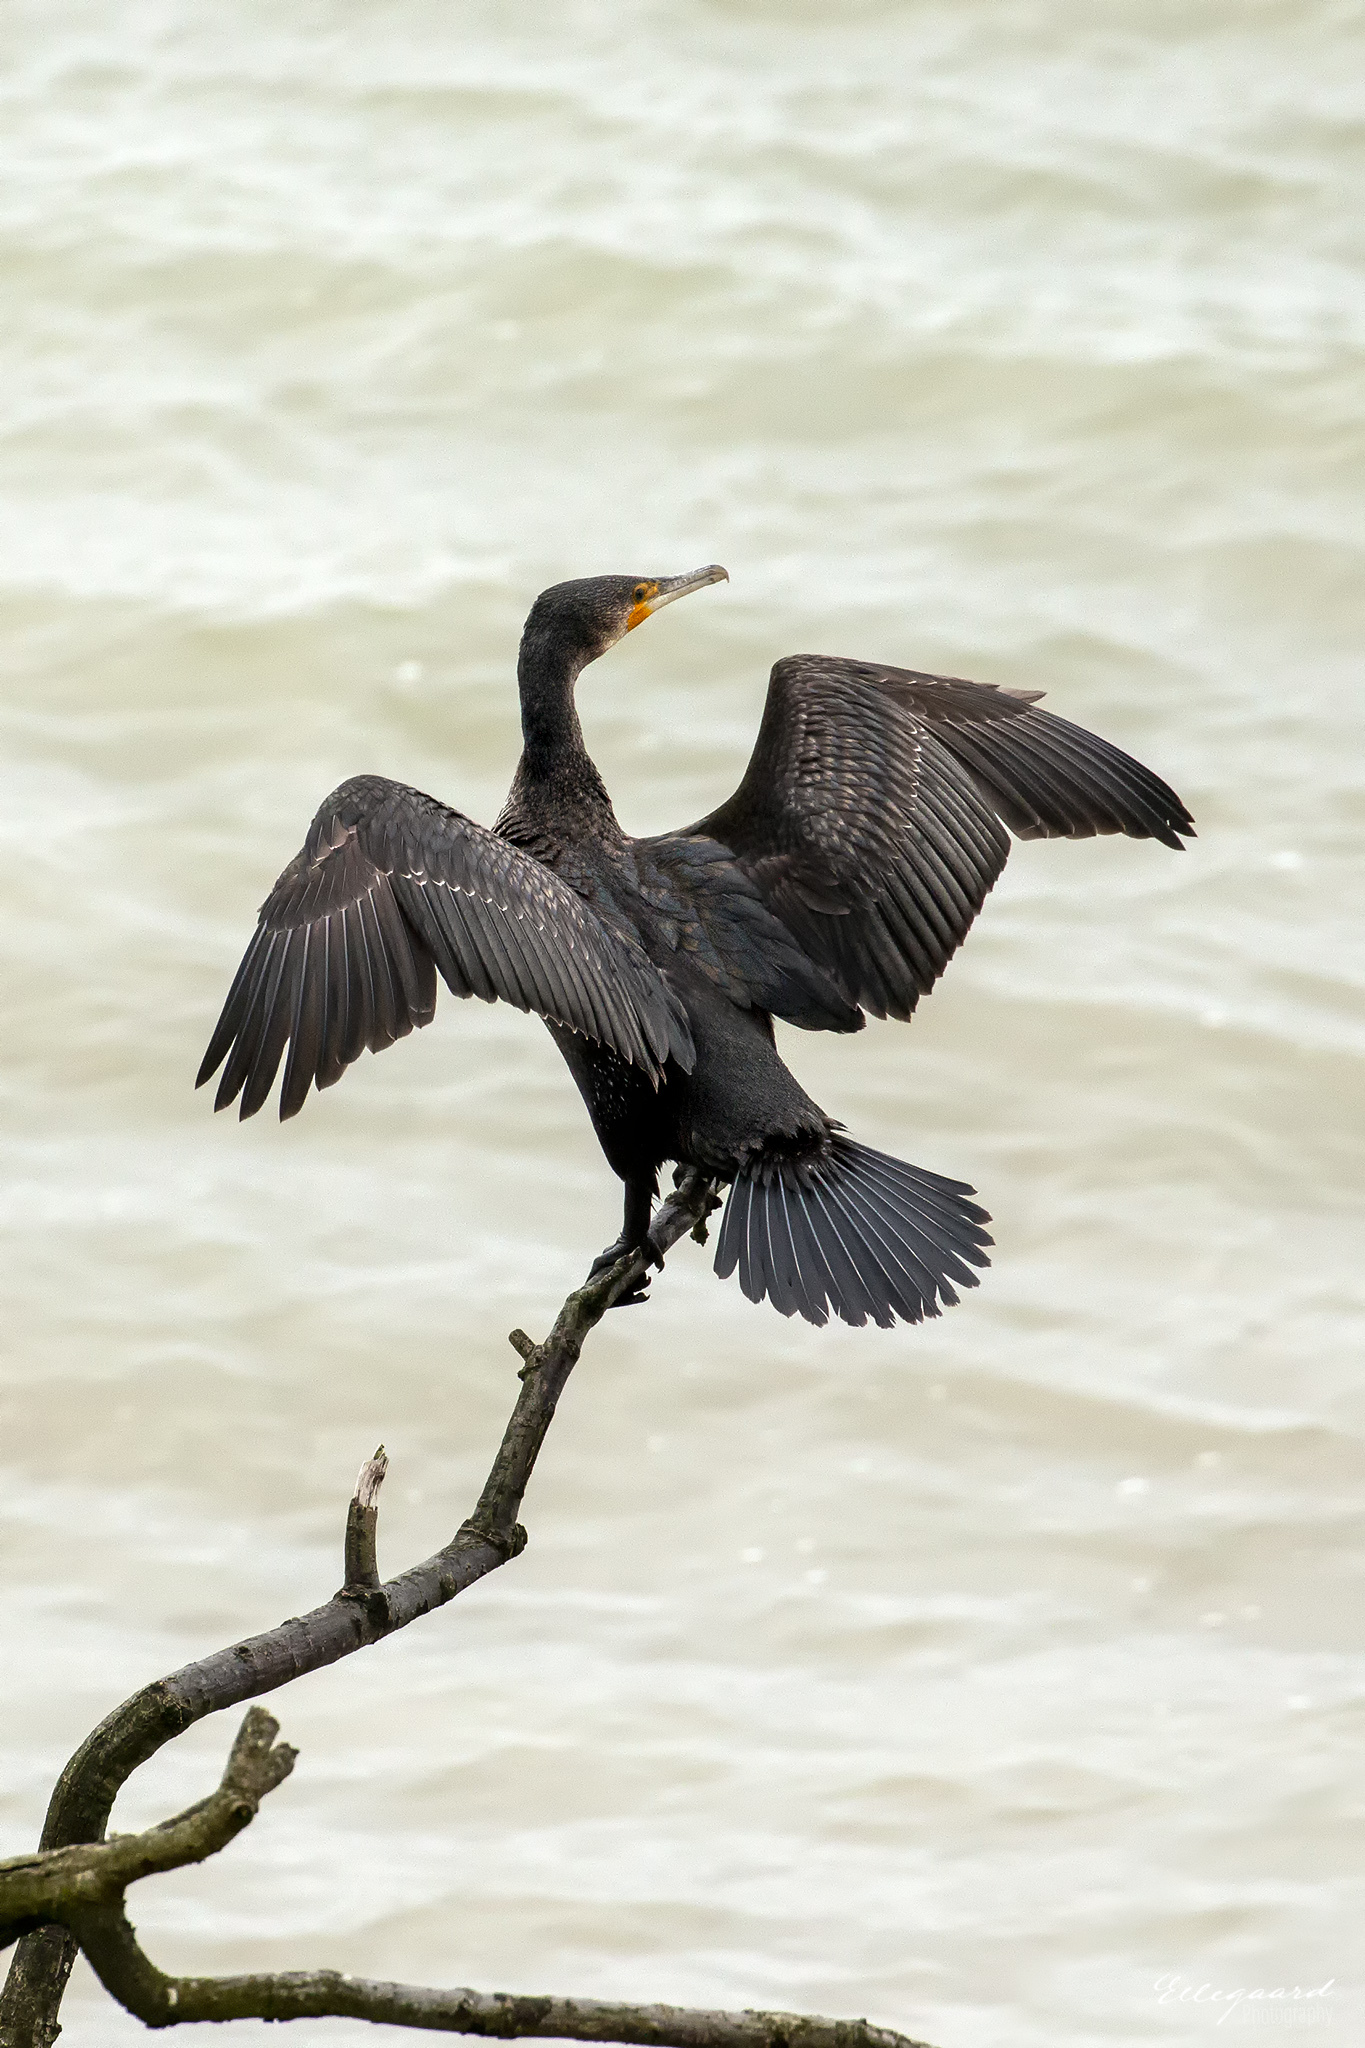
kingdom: Animalia
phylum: Chordata
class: Aves
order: Suliformes
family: Phalacrocoracidae
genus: Phalacrocorax
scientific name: Phalacrocorax carbo
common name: Great cormorant
